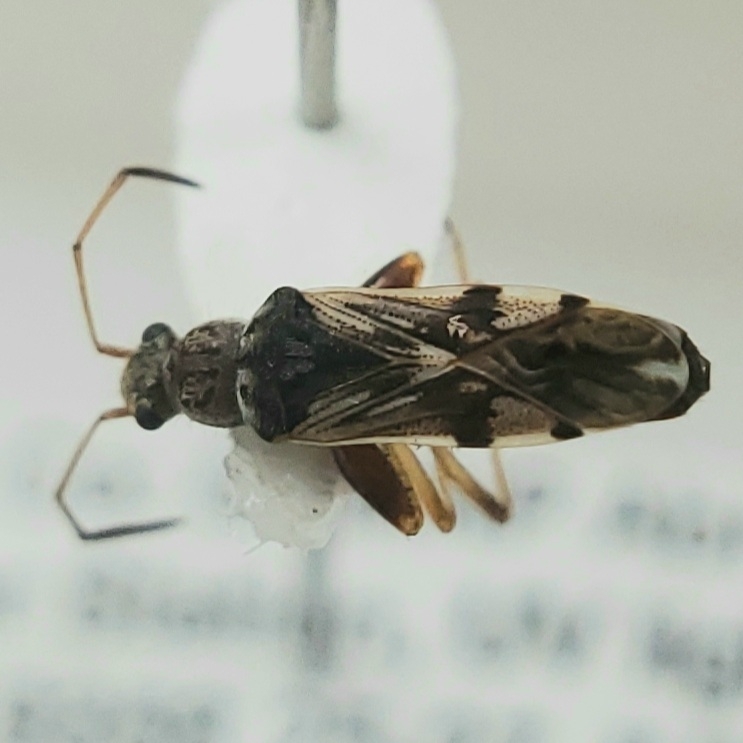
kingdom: Animalia
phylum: Arthropoda
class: Insecta
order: Hemiptera
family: Rhyparochromidae
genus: Neopamera
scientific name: Neopamera bilobata
